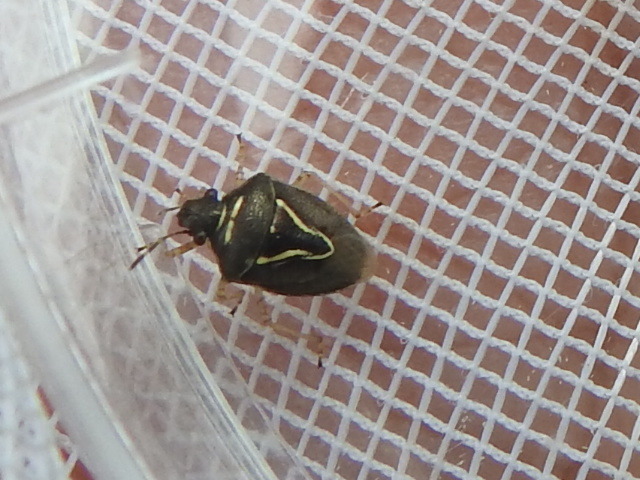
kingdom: Animalia
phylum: Arthropoda
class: Insecta
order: Hemiptera
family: Pentatomidae
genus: Mormidea
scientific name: Mormidea lugens
